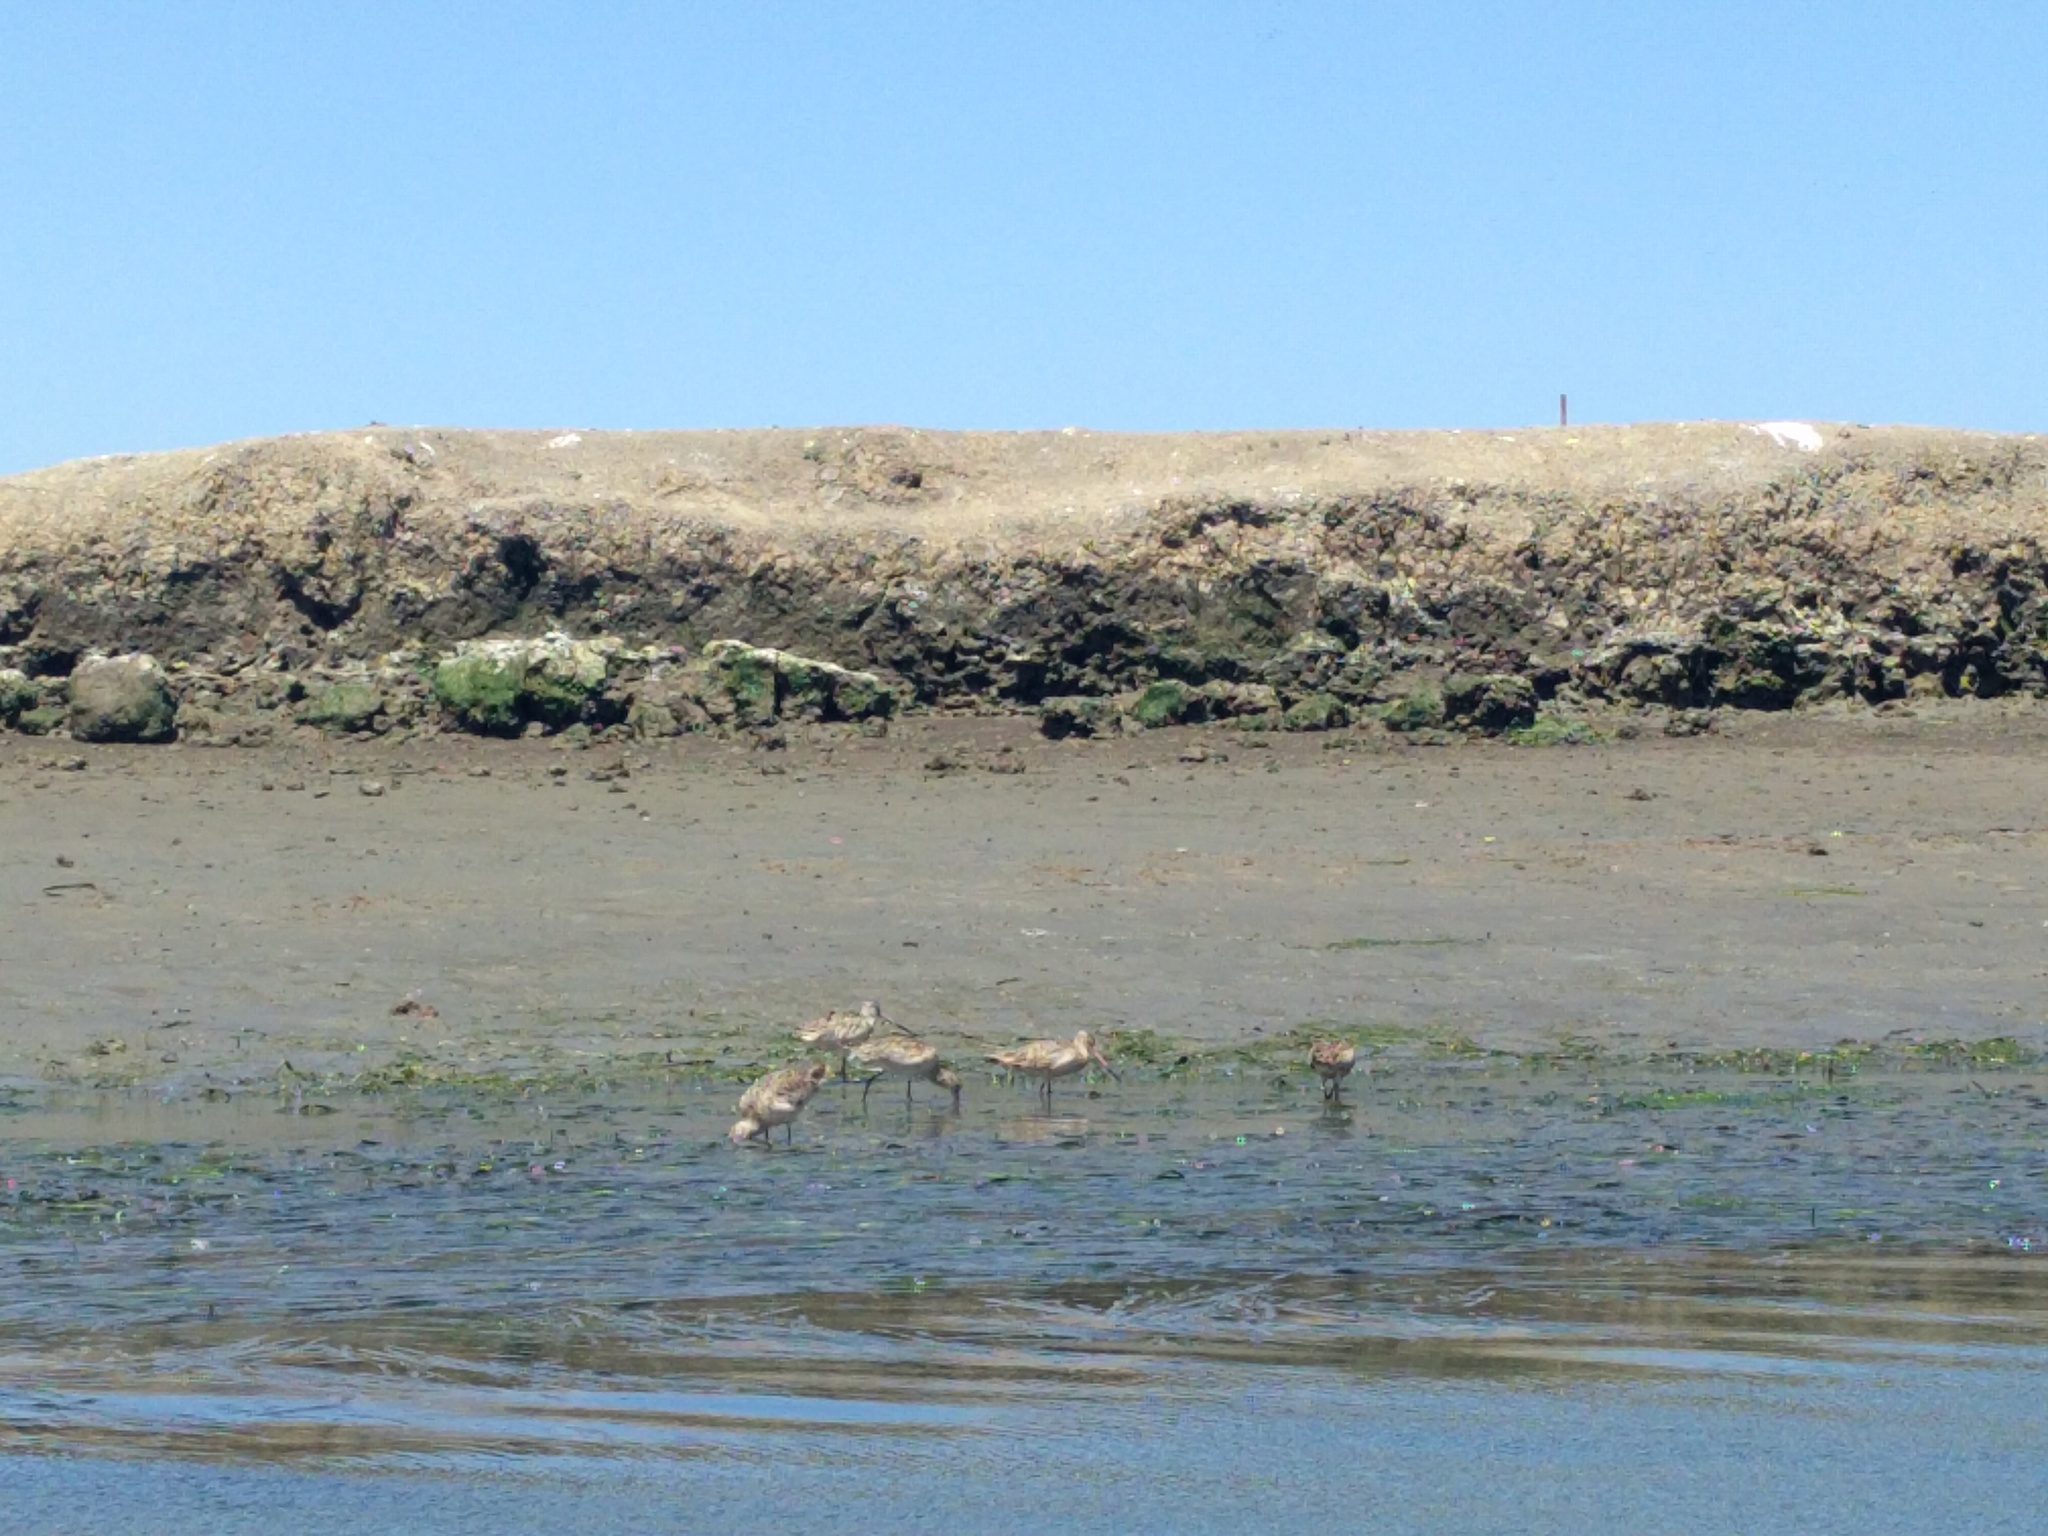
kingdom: Animalia
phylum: Chordata
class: Aves
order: Charadriiformes
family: Scolopacidae
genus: Limosa
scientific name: Limosa fedoa
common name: Marbled godwit
